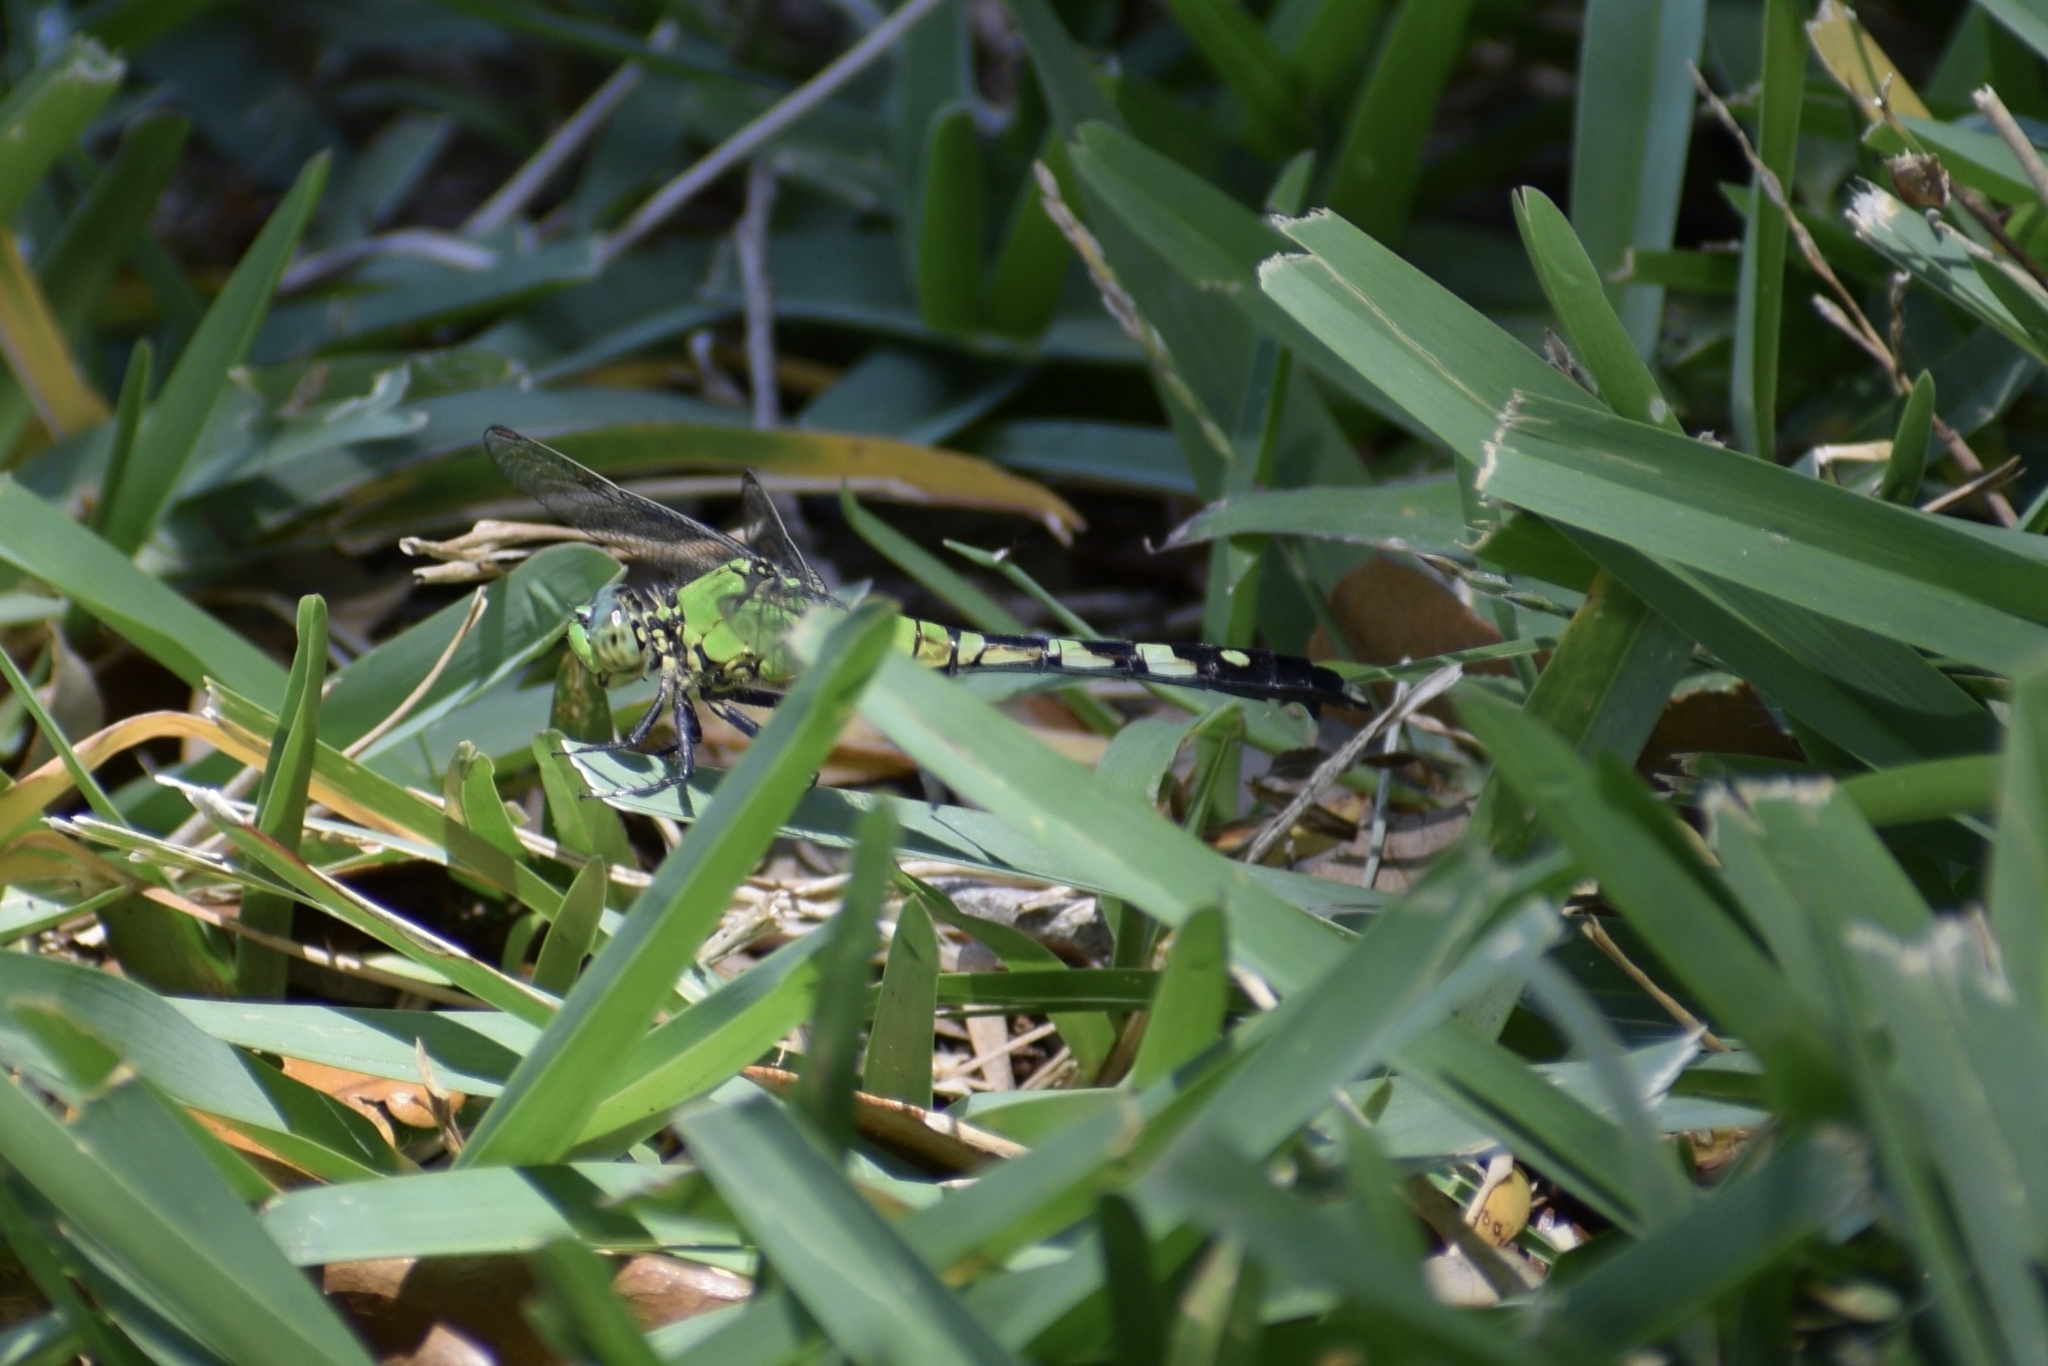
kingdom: Animalia
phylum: Arthropoda
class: Insecta
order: Odonata
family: Libellulidae
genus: Erythemis
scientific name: Erythemis simplicicollis
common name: Eastern pondhawk
